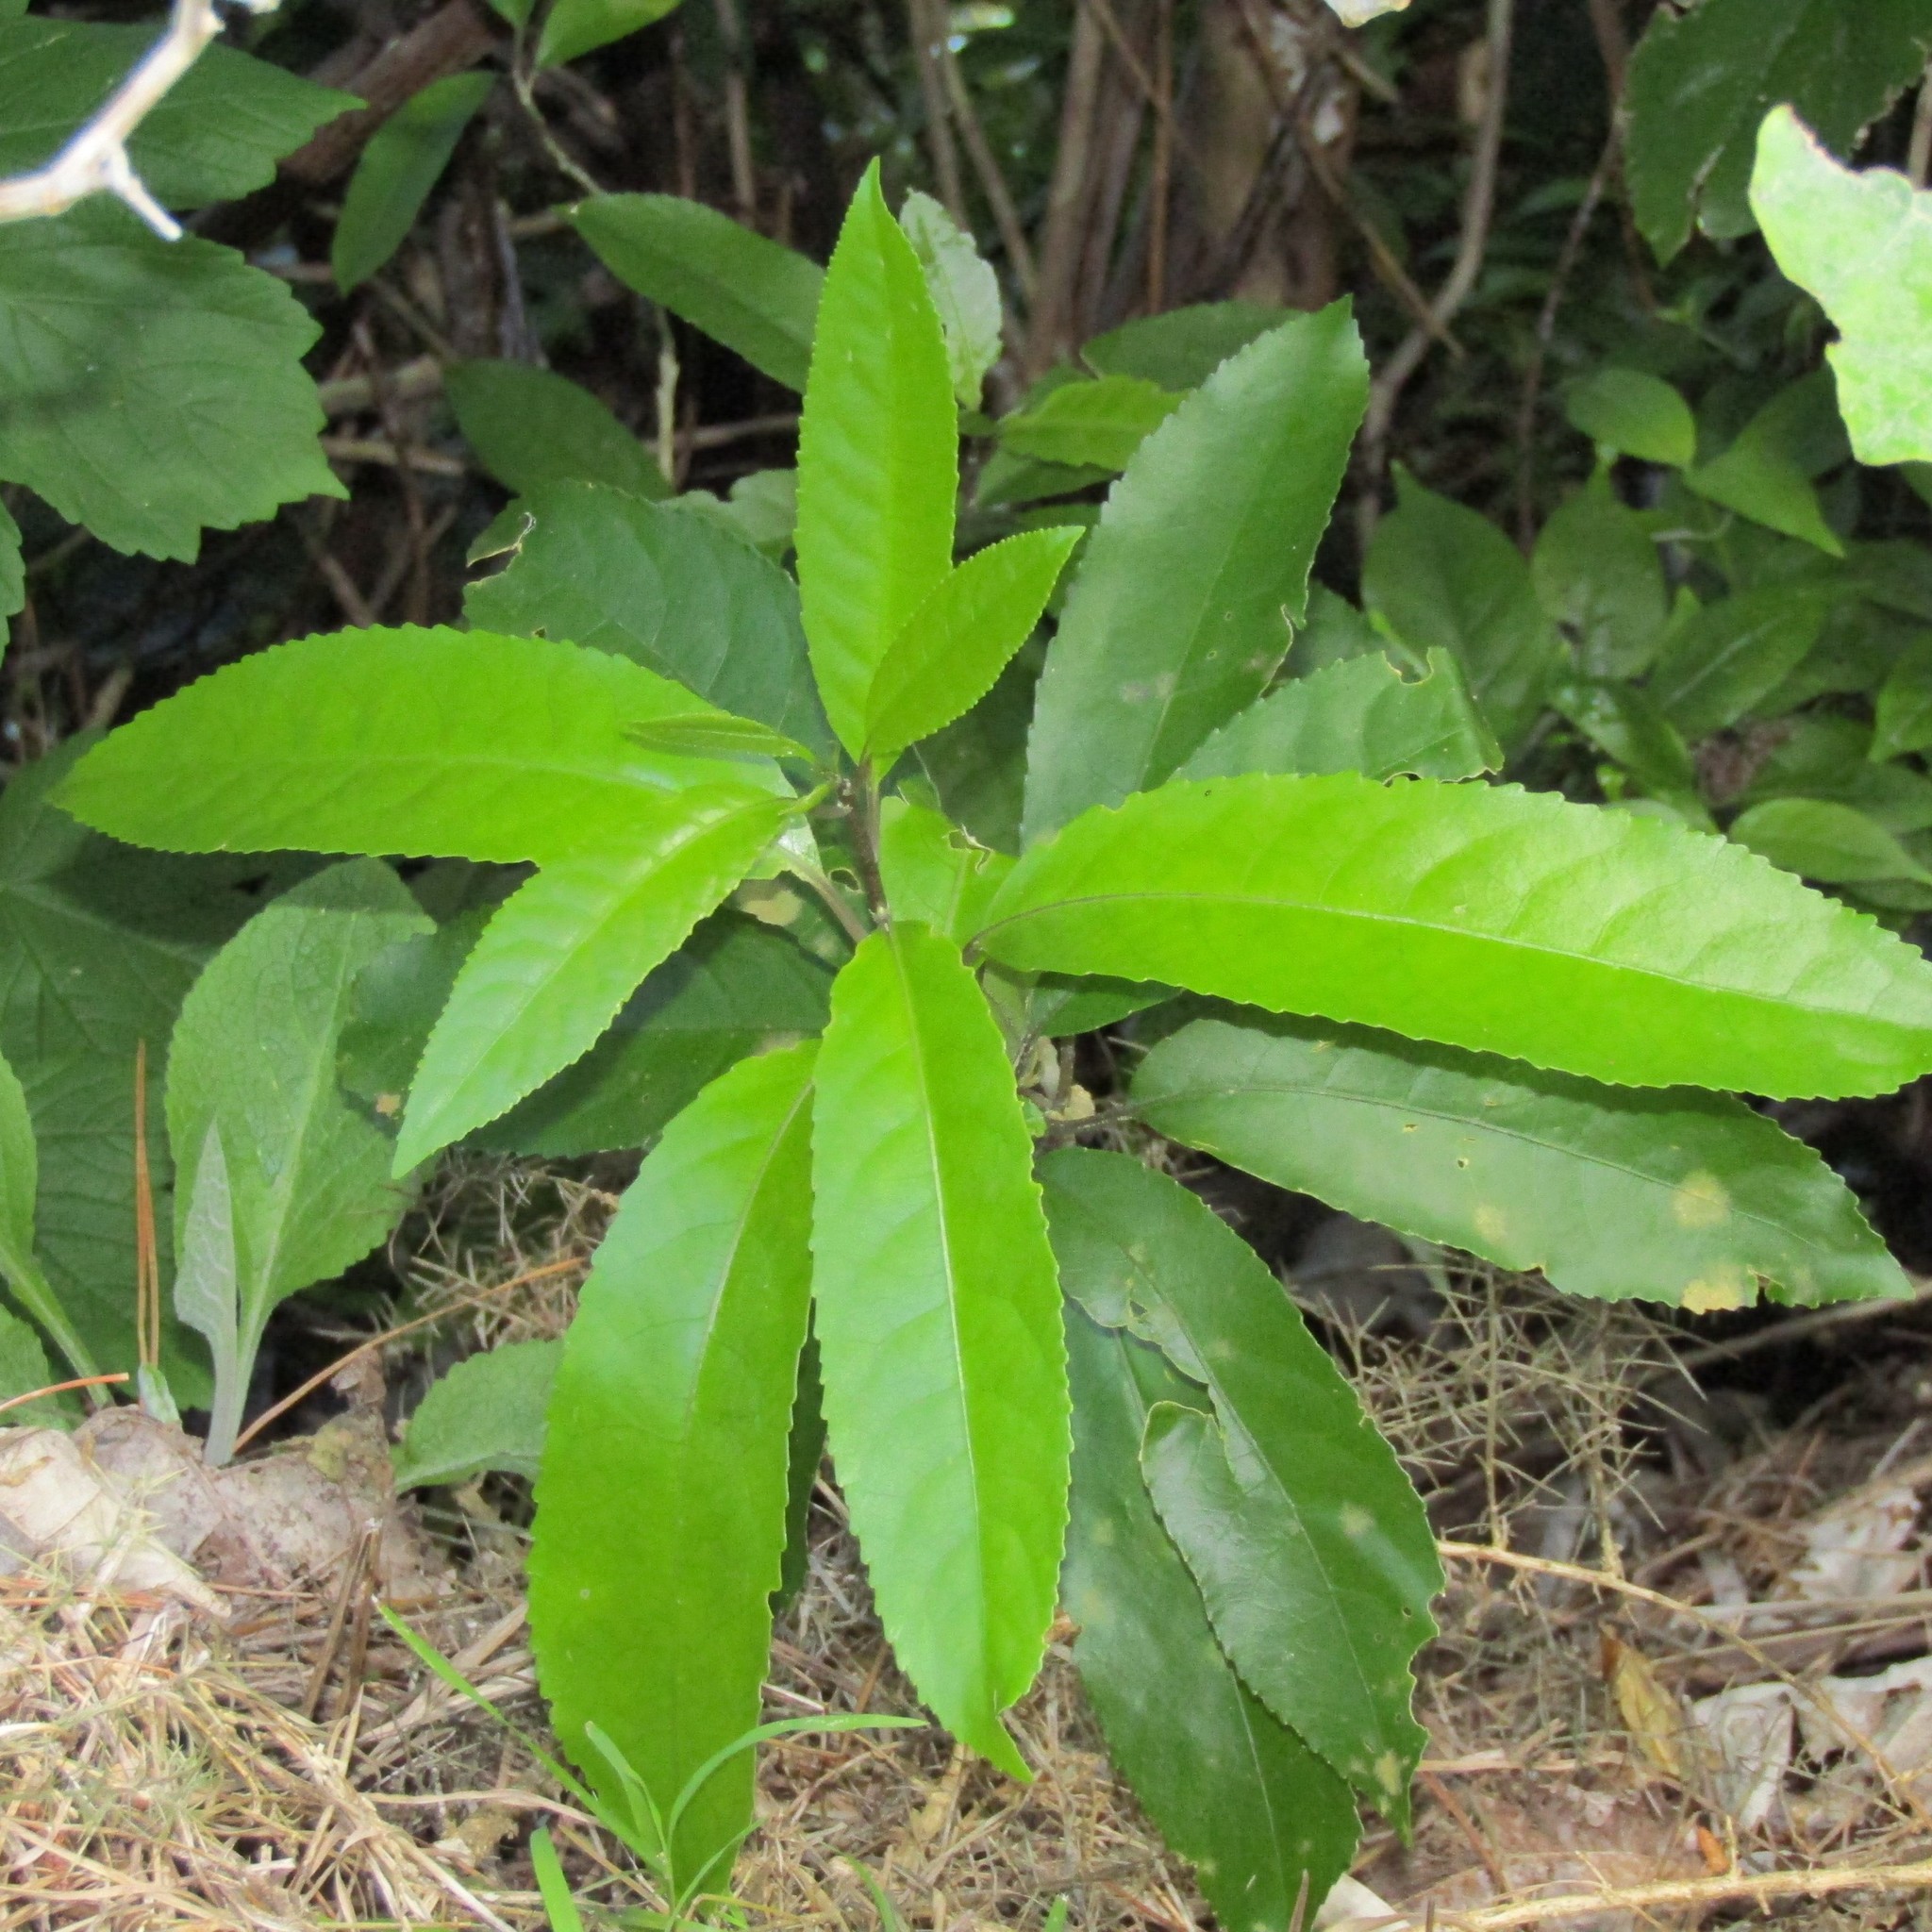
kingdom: Plantae
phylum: Tracheophyta
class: Magnoliopsida
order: Malpighiales
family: Violaceae
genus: Melicytus
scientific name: Melicytus ramiflorus
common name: Mahoe
